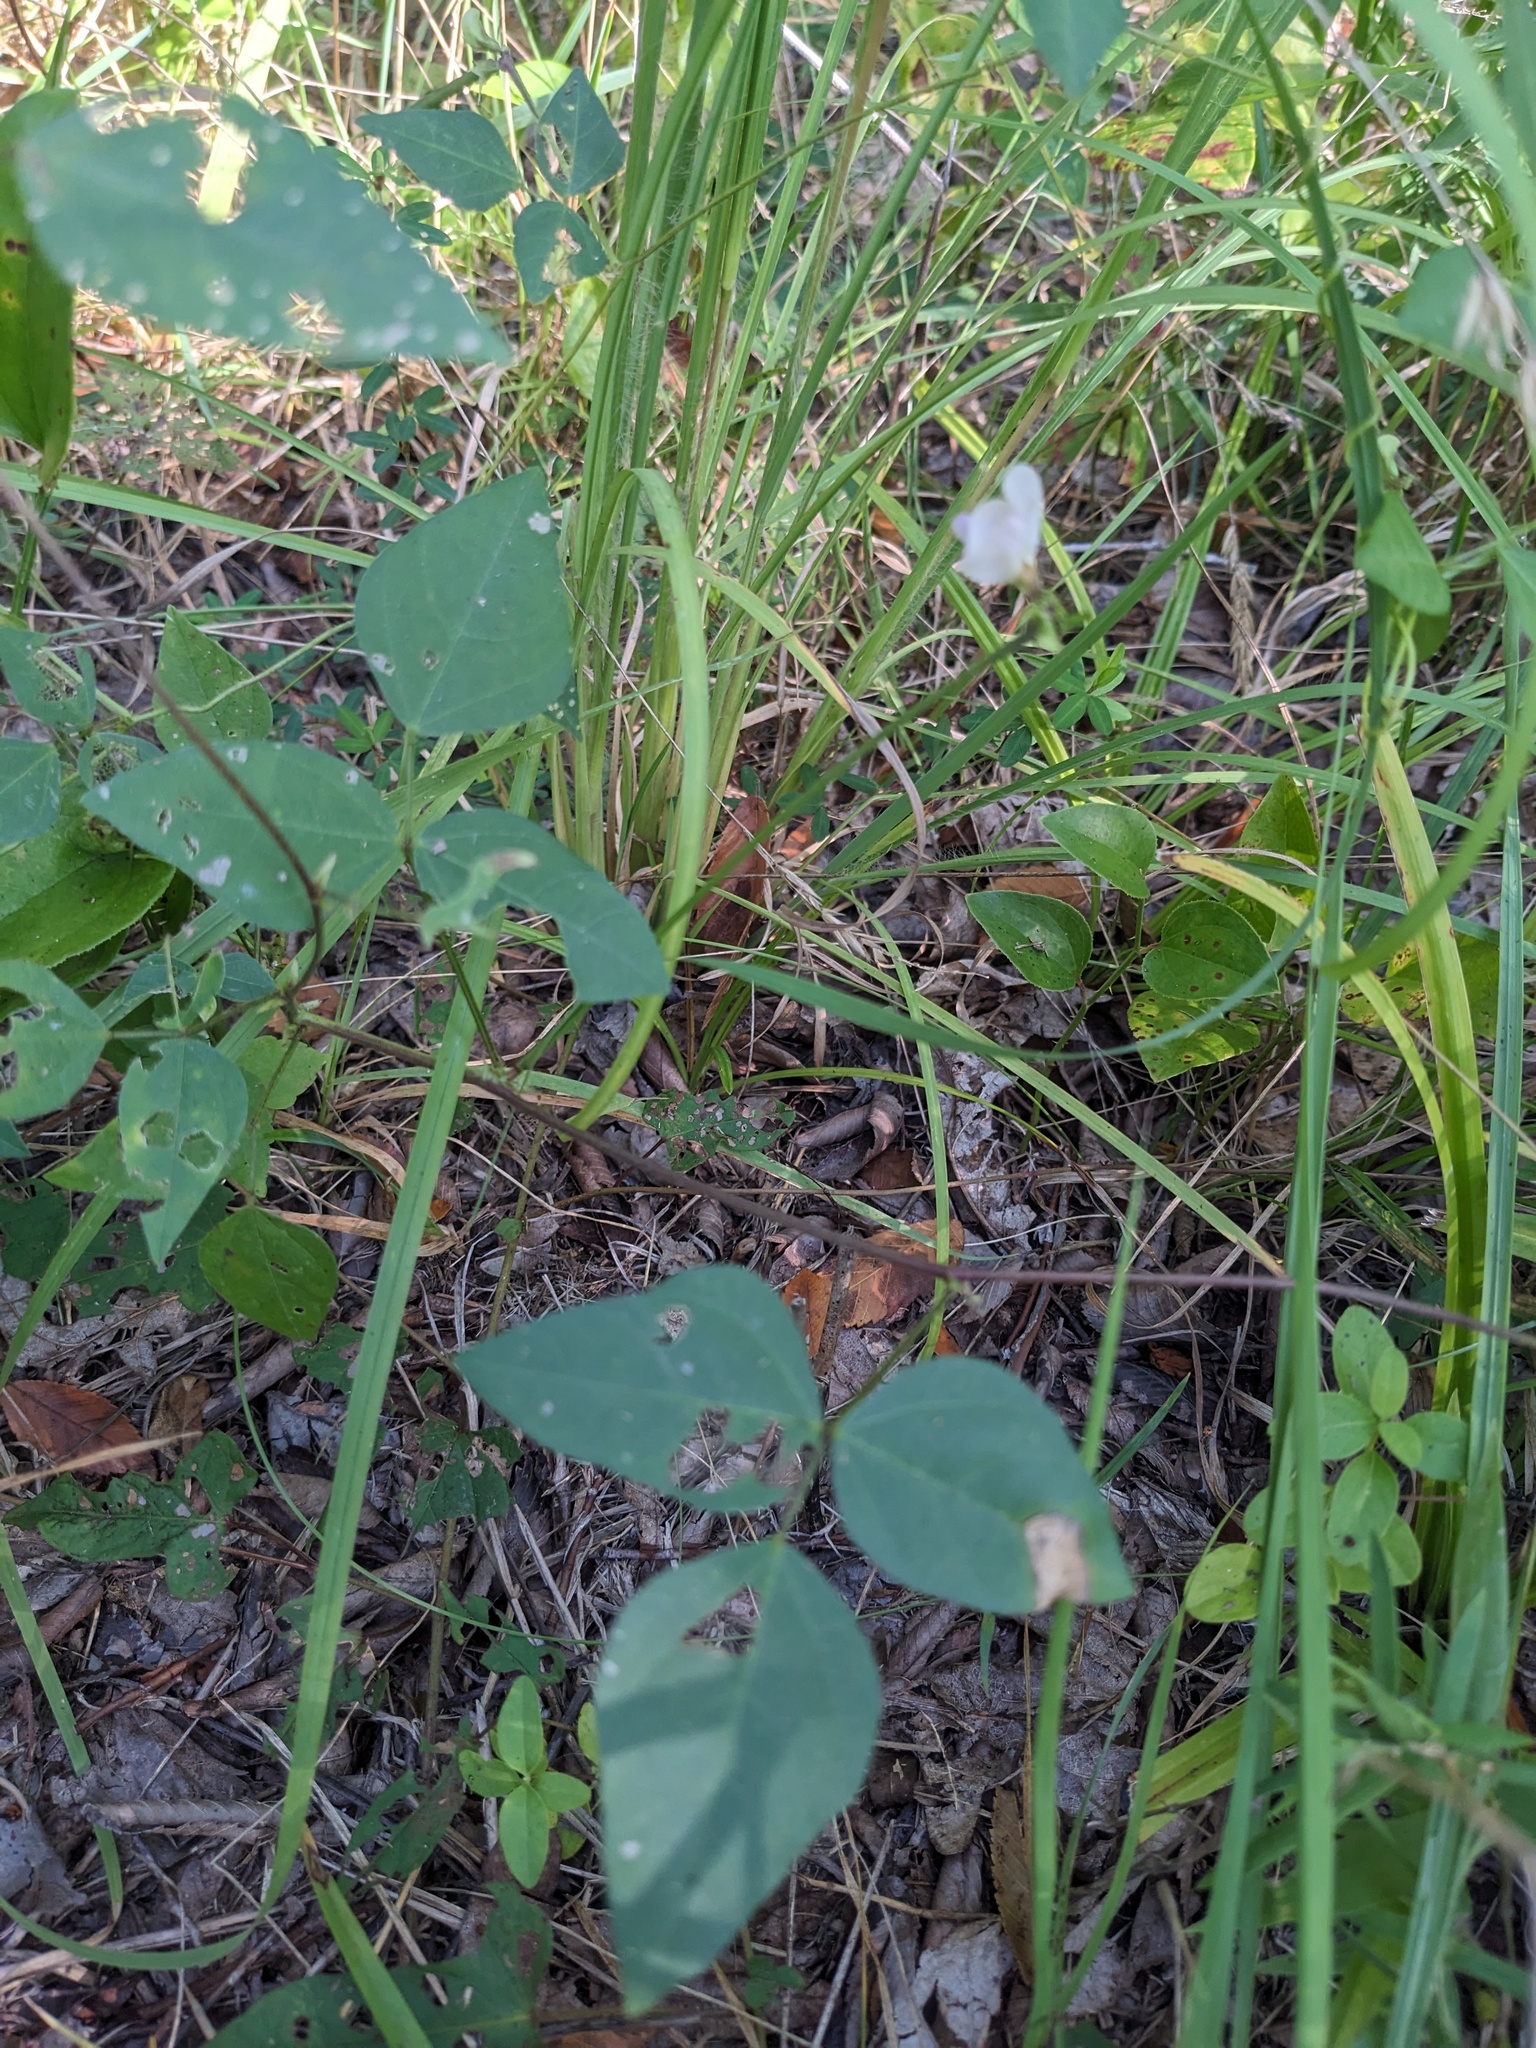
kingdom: Plantae
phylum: Tracheophyta
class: Magnoliopsida
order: Fabales
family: Fabaceae
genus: Strophostyles
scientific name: Strophostyles helvola
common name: Trailing wild bean
